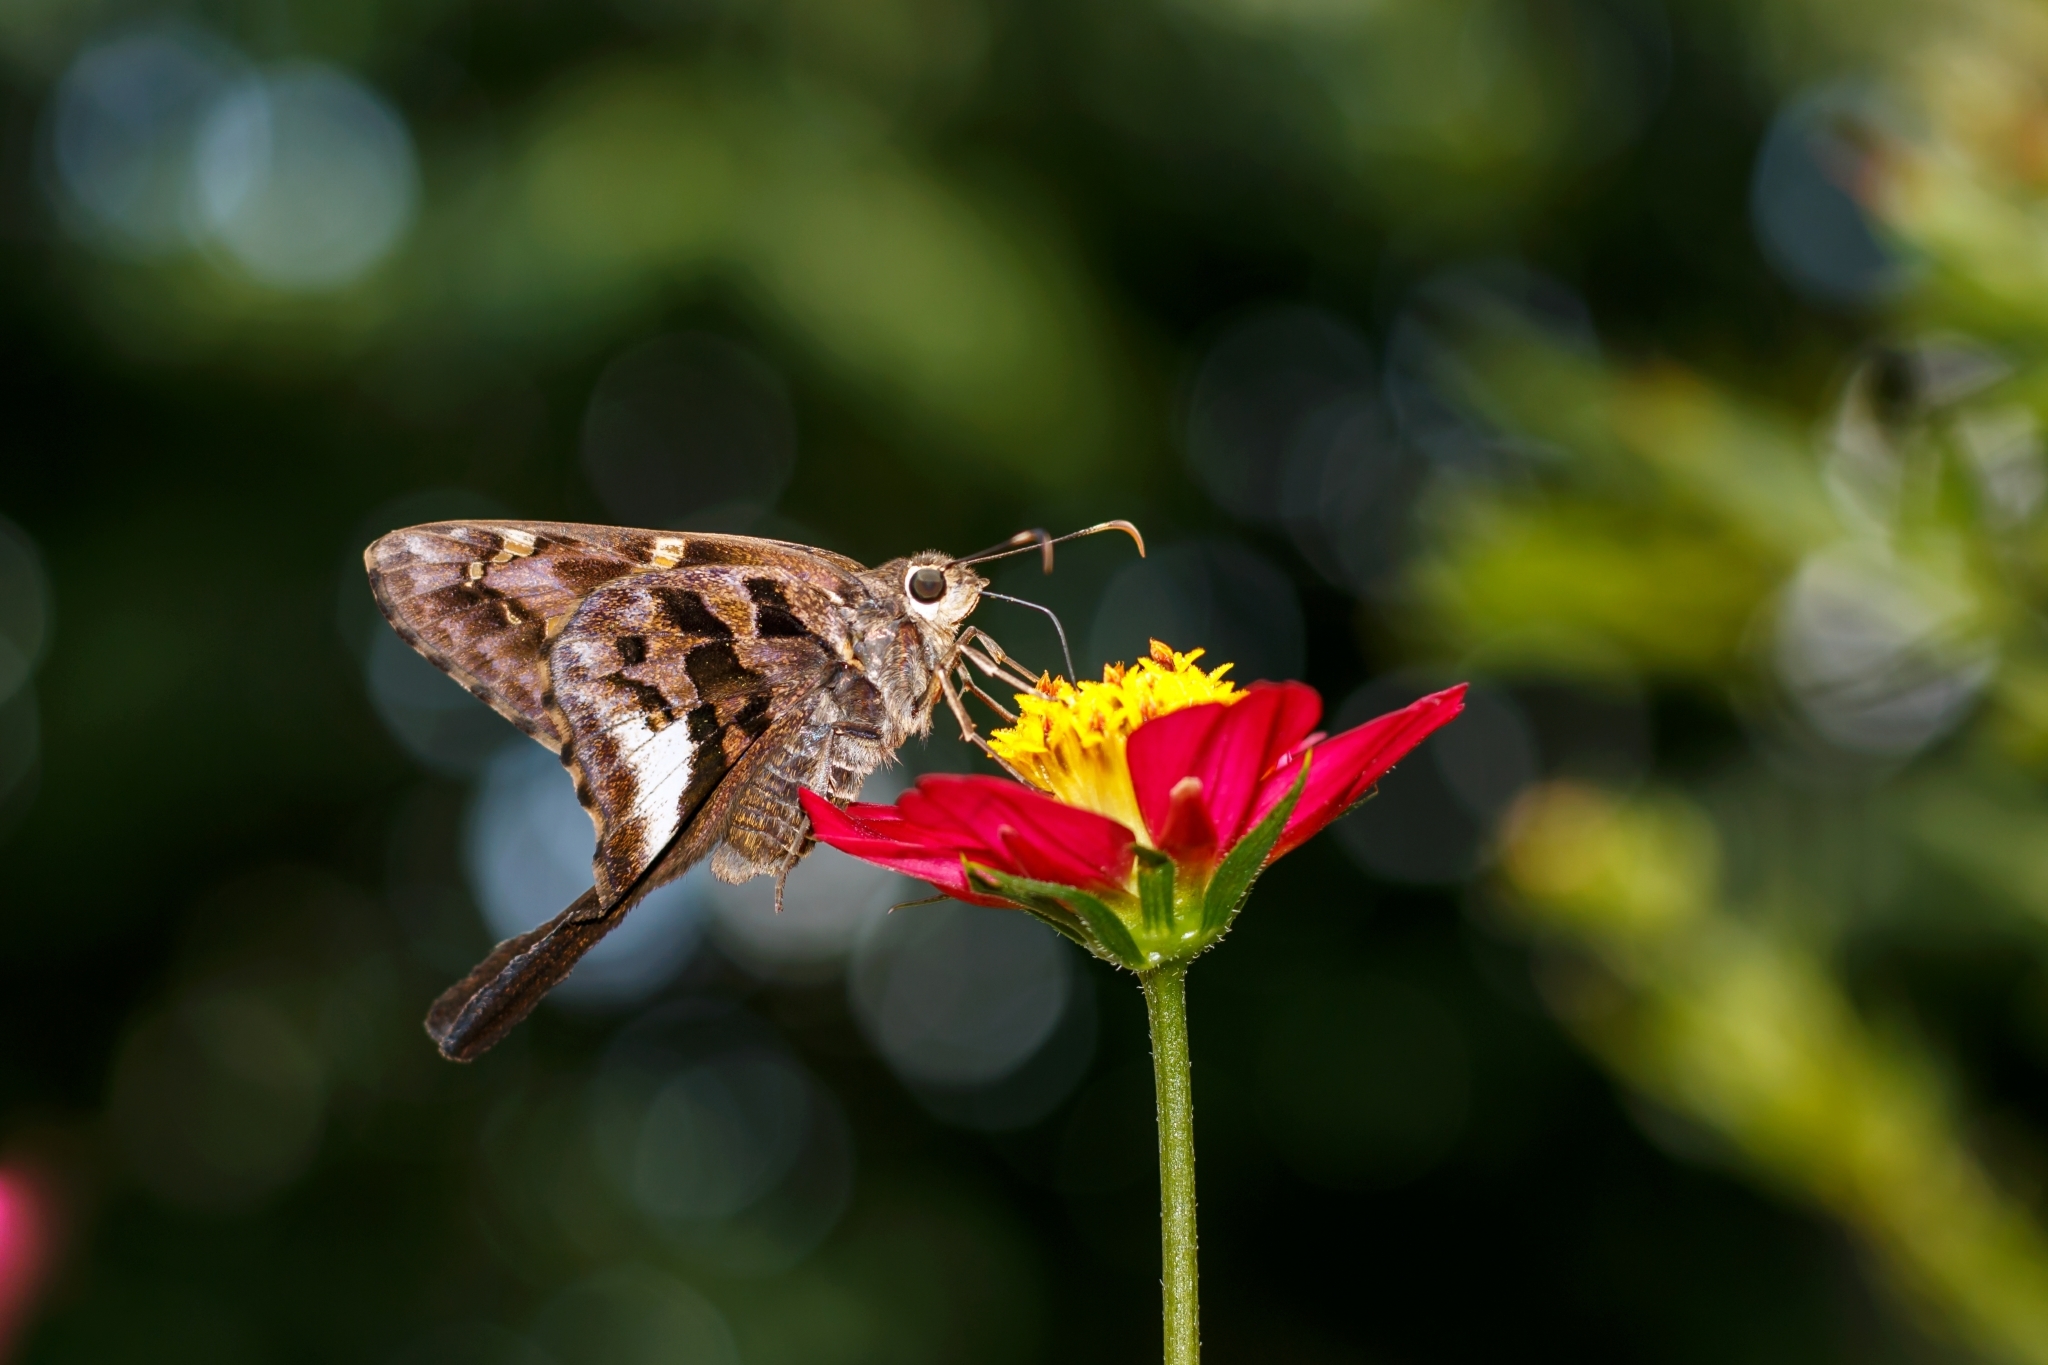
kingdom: Animalia
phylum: Arthropoda
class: Insecta
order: Lepidoptera
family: Hesperiidae
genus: Codatractus
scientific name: Codatractus carlos
